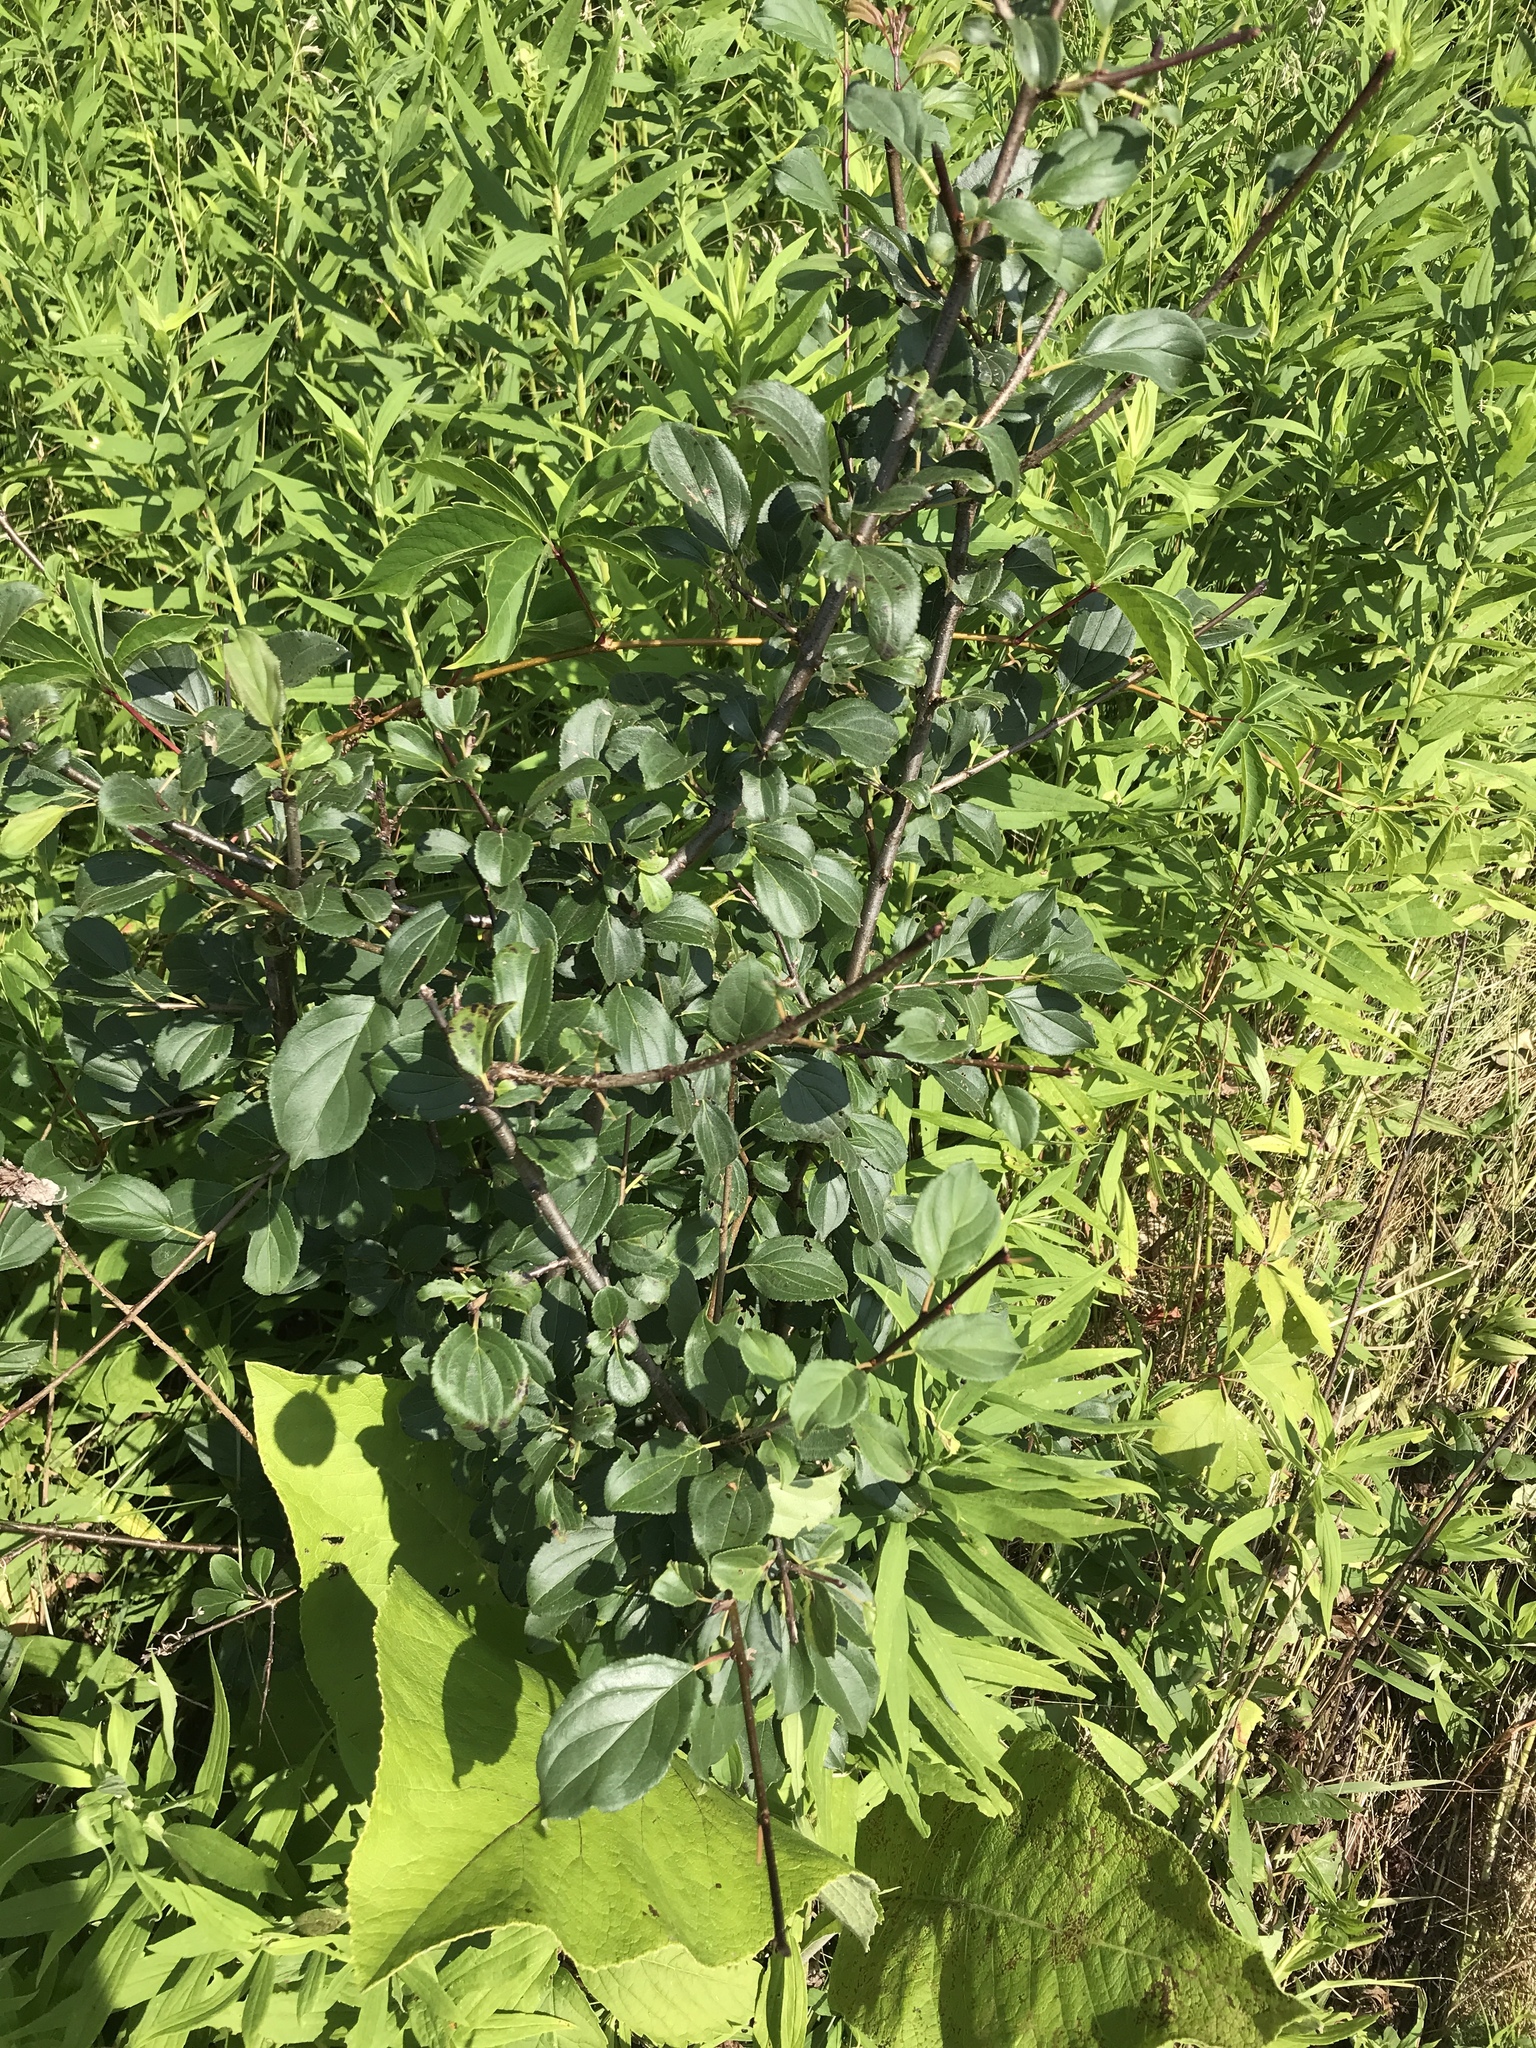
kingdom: Plantae
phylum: Tracheophyta
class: Magnoliopsida
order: Rosales
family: Rhamnaceae
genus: Rhamnus
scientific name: Rhamnus cathartica
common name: Common buckthorn
